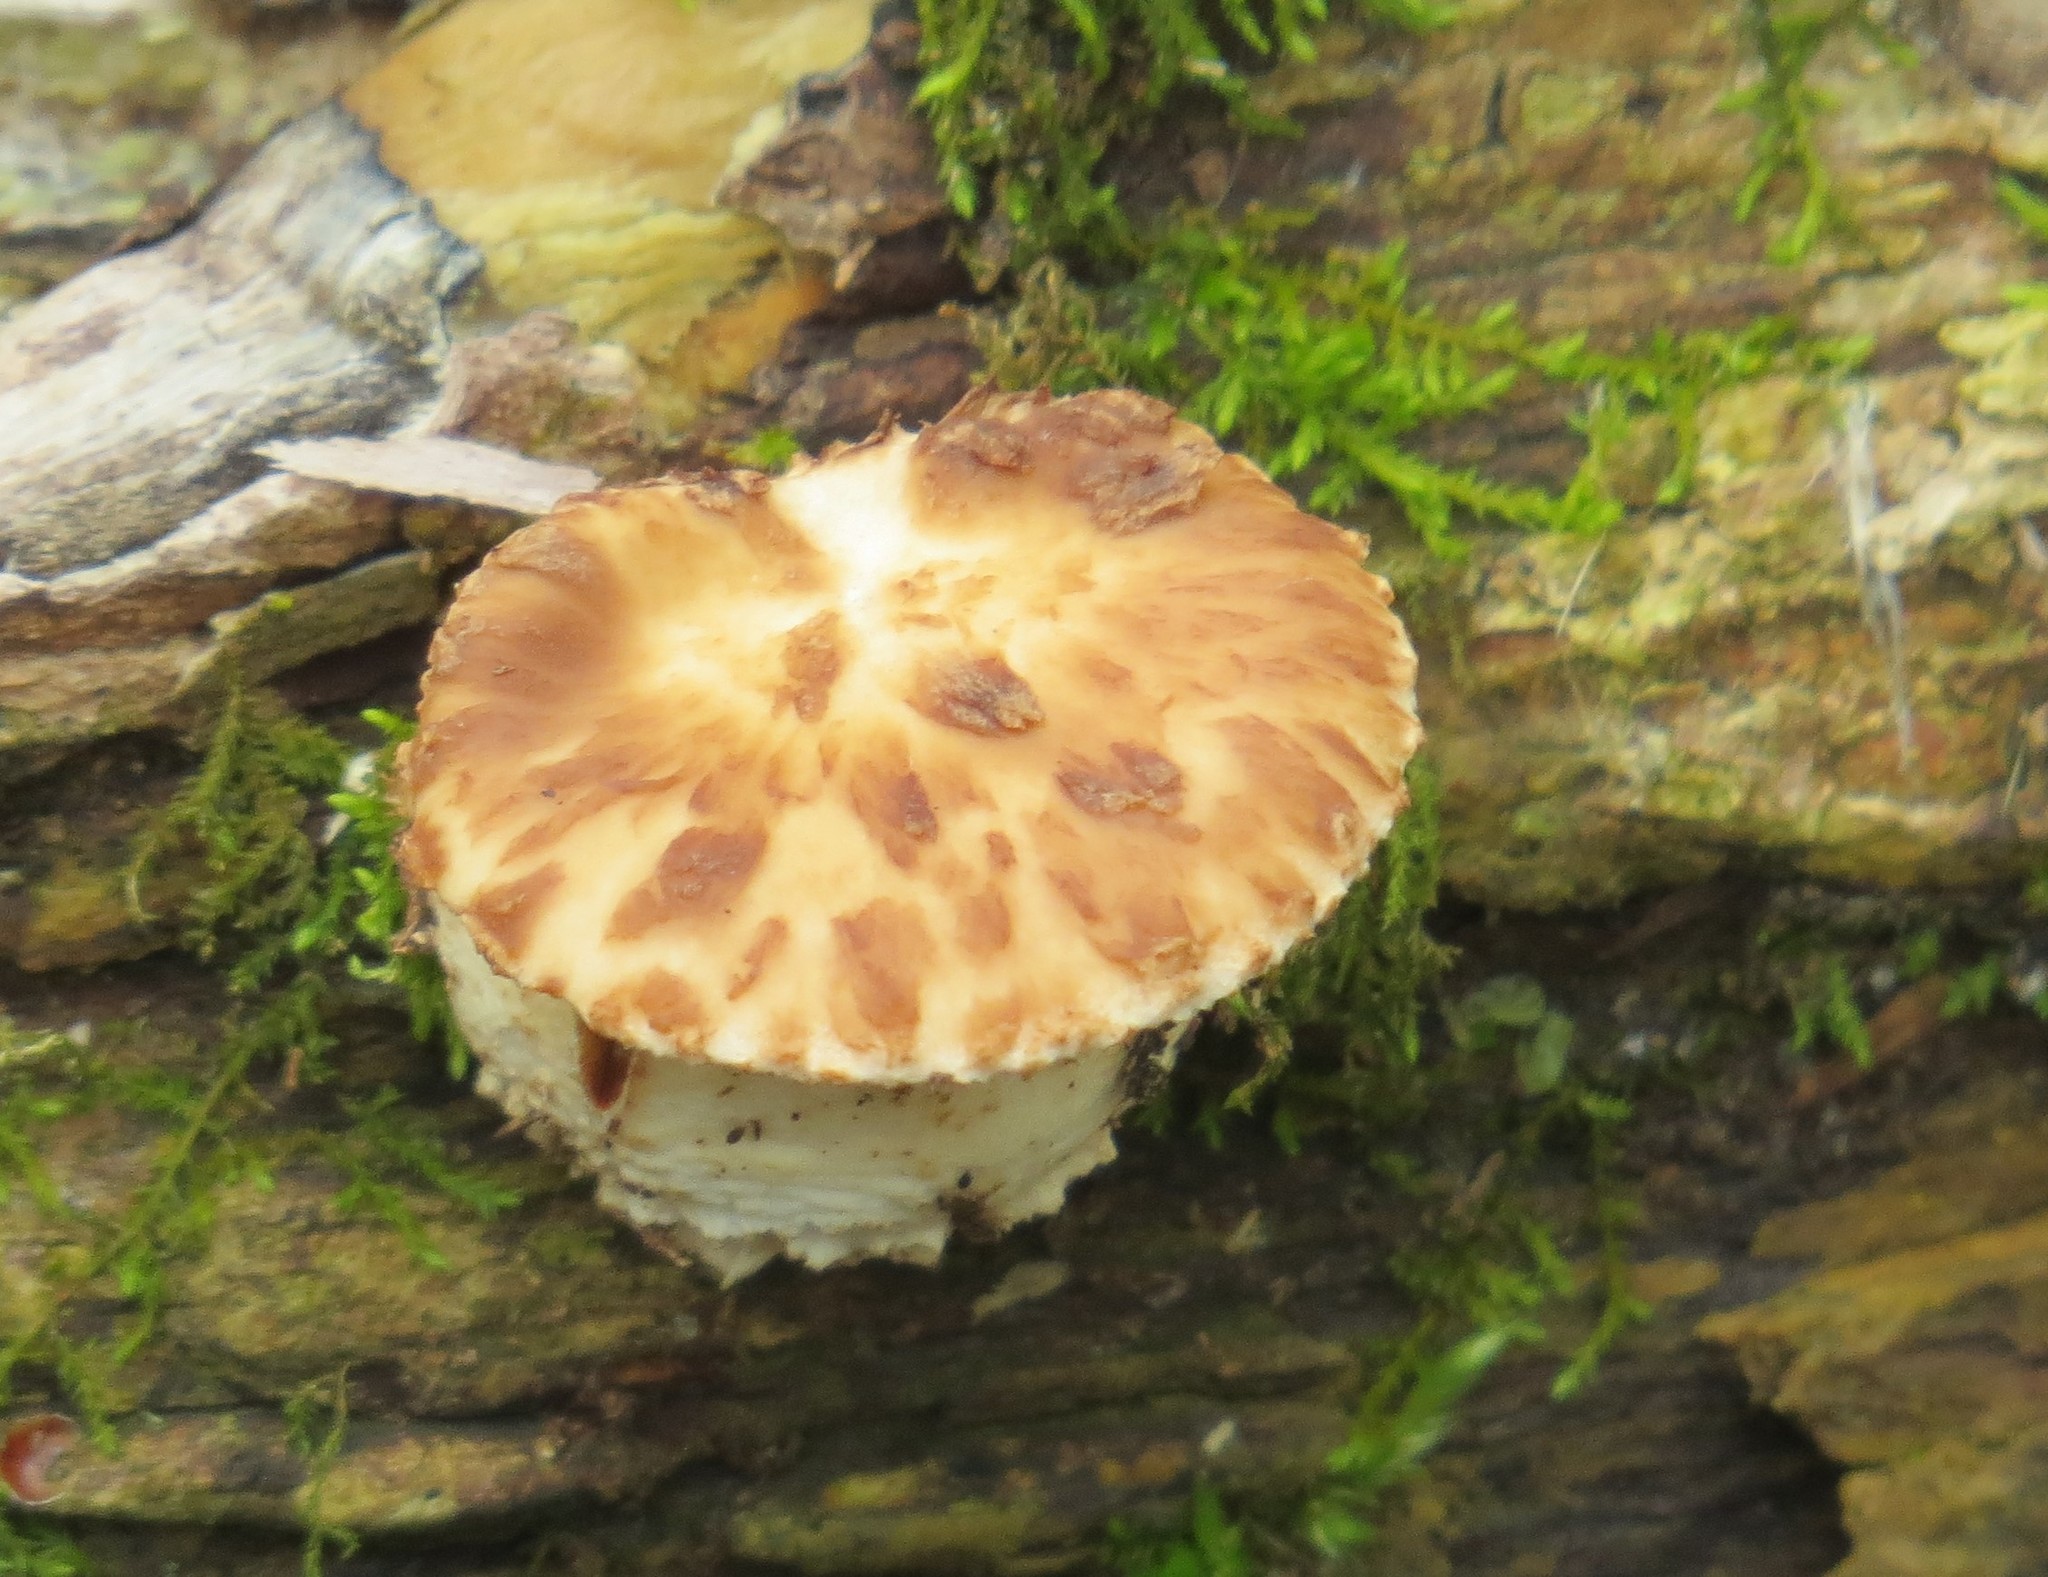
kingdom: Fungi
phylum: Basidiomycota
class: Agaricomycetes
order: Polyporales
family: Polyporaceae
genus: Cerioporus
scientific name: Cerioporus squamosus
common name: Dryad's saddle
